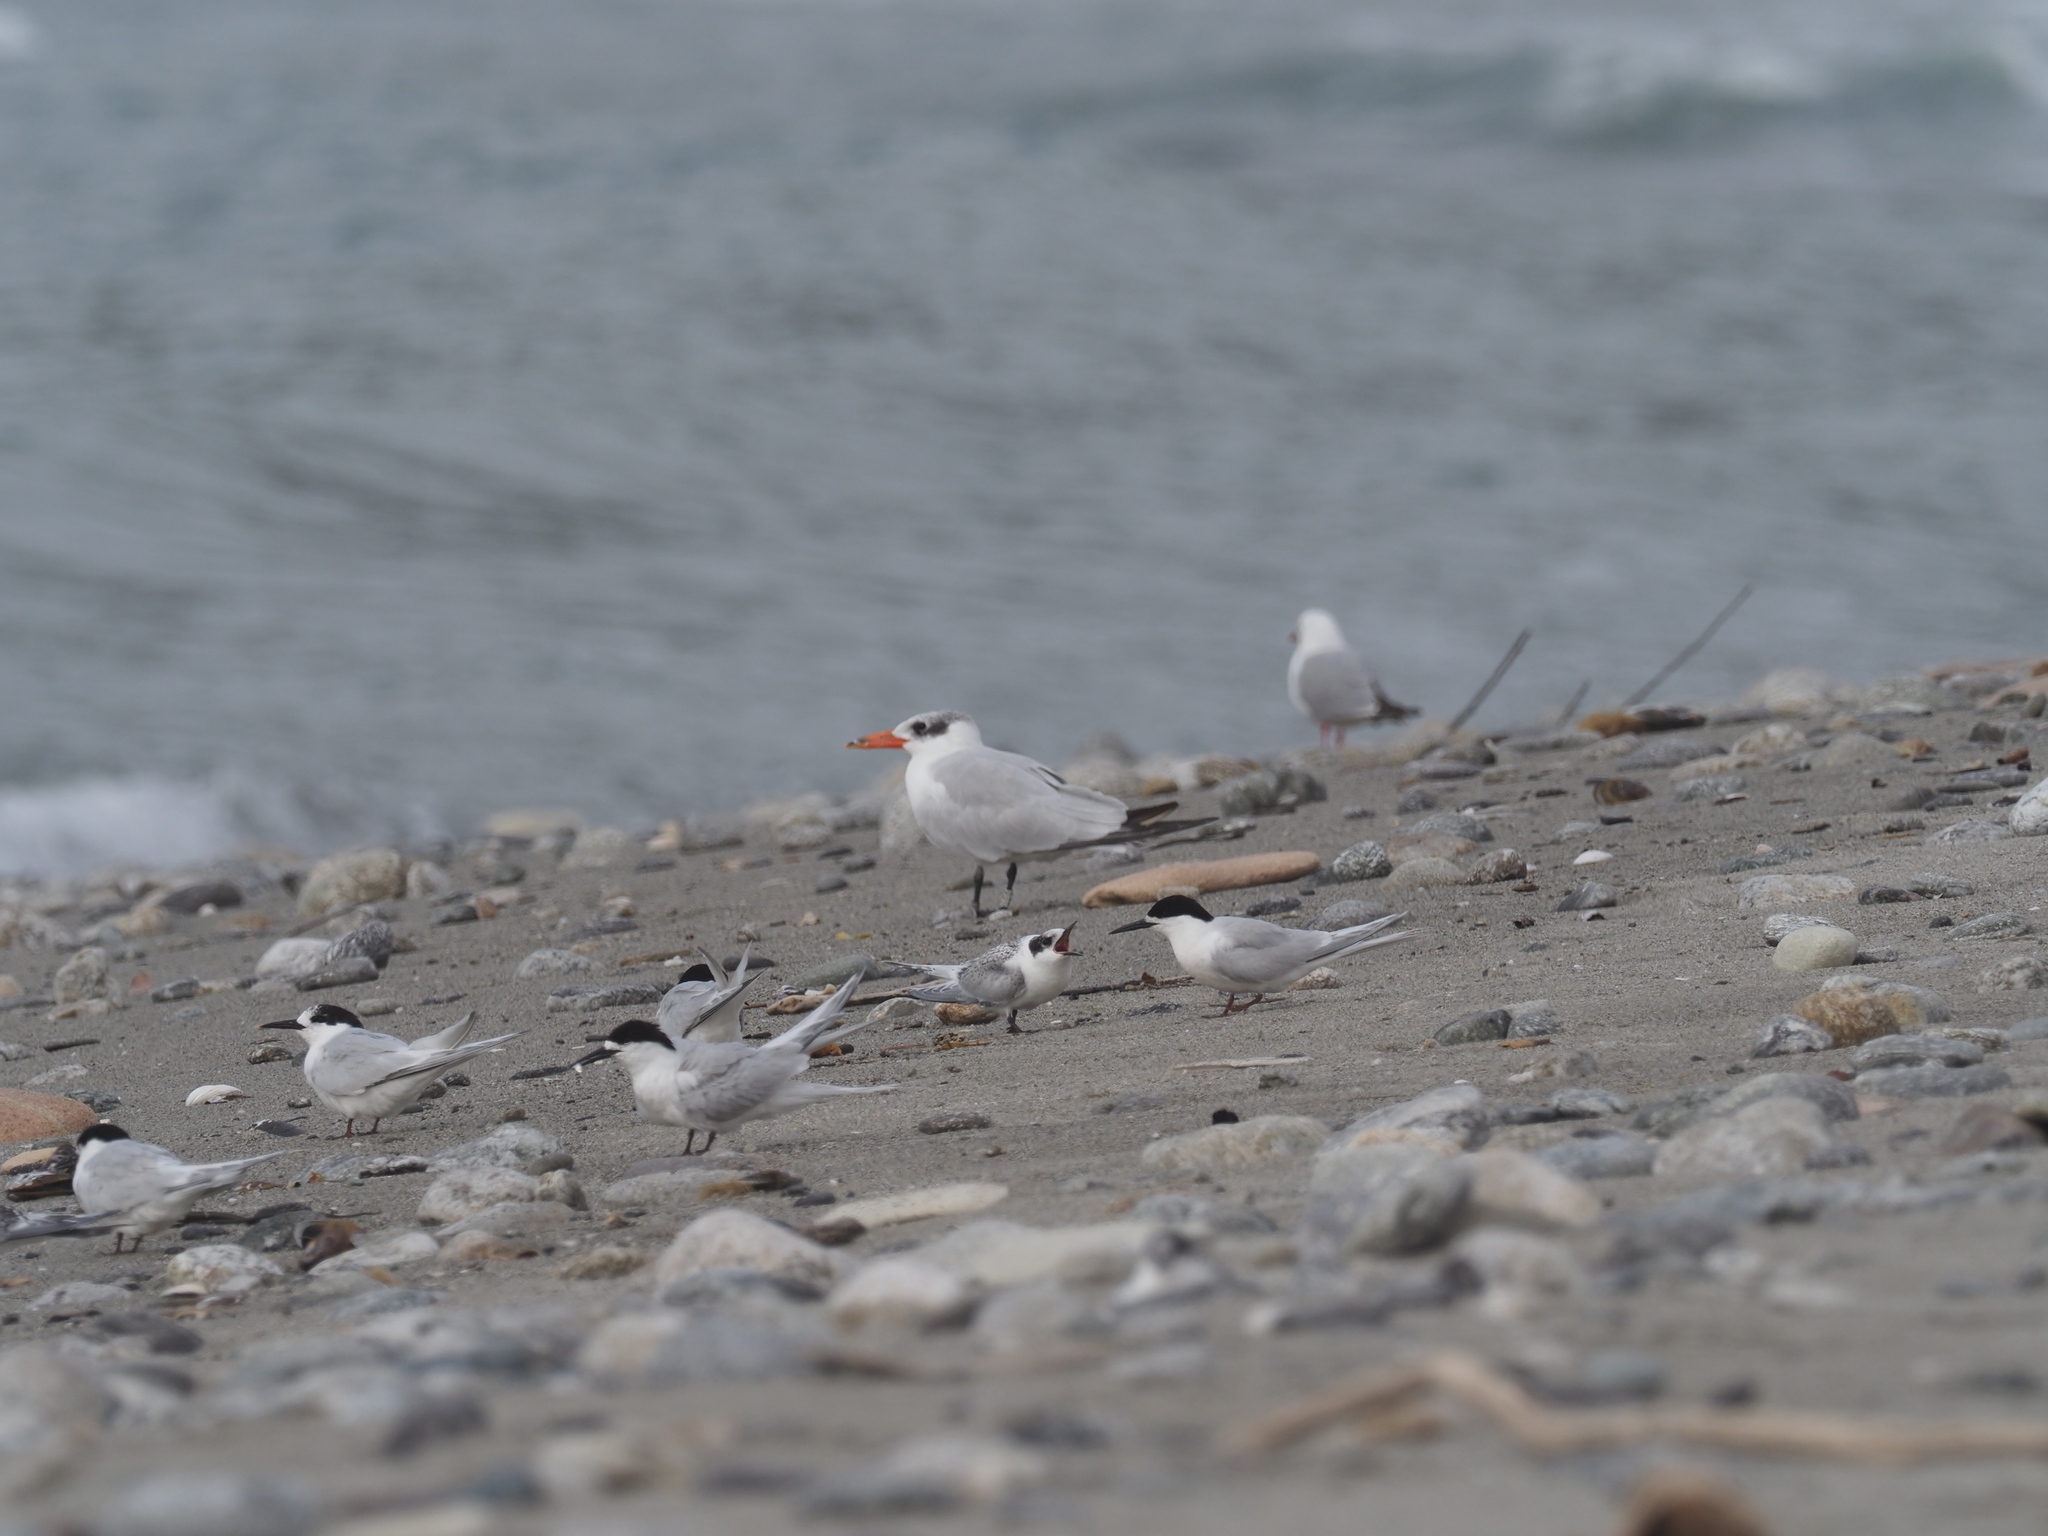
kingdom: Animalia
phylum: Chordata
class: Aves
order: Charadriiformes
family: Laridae
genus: Hydroprogne
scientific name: Hydroprogne caspia
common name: Caspian tern
